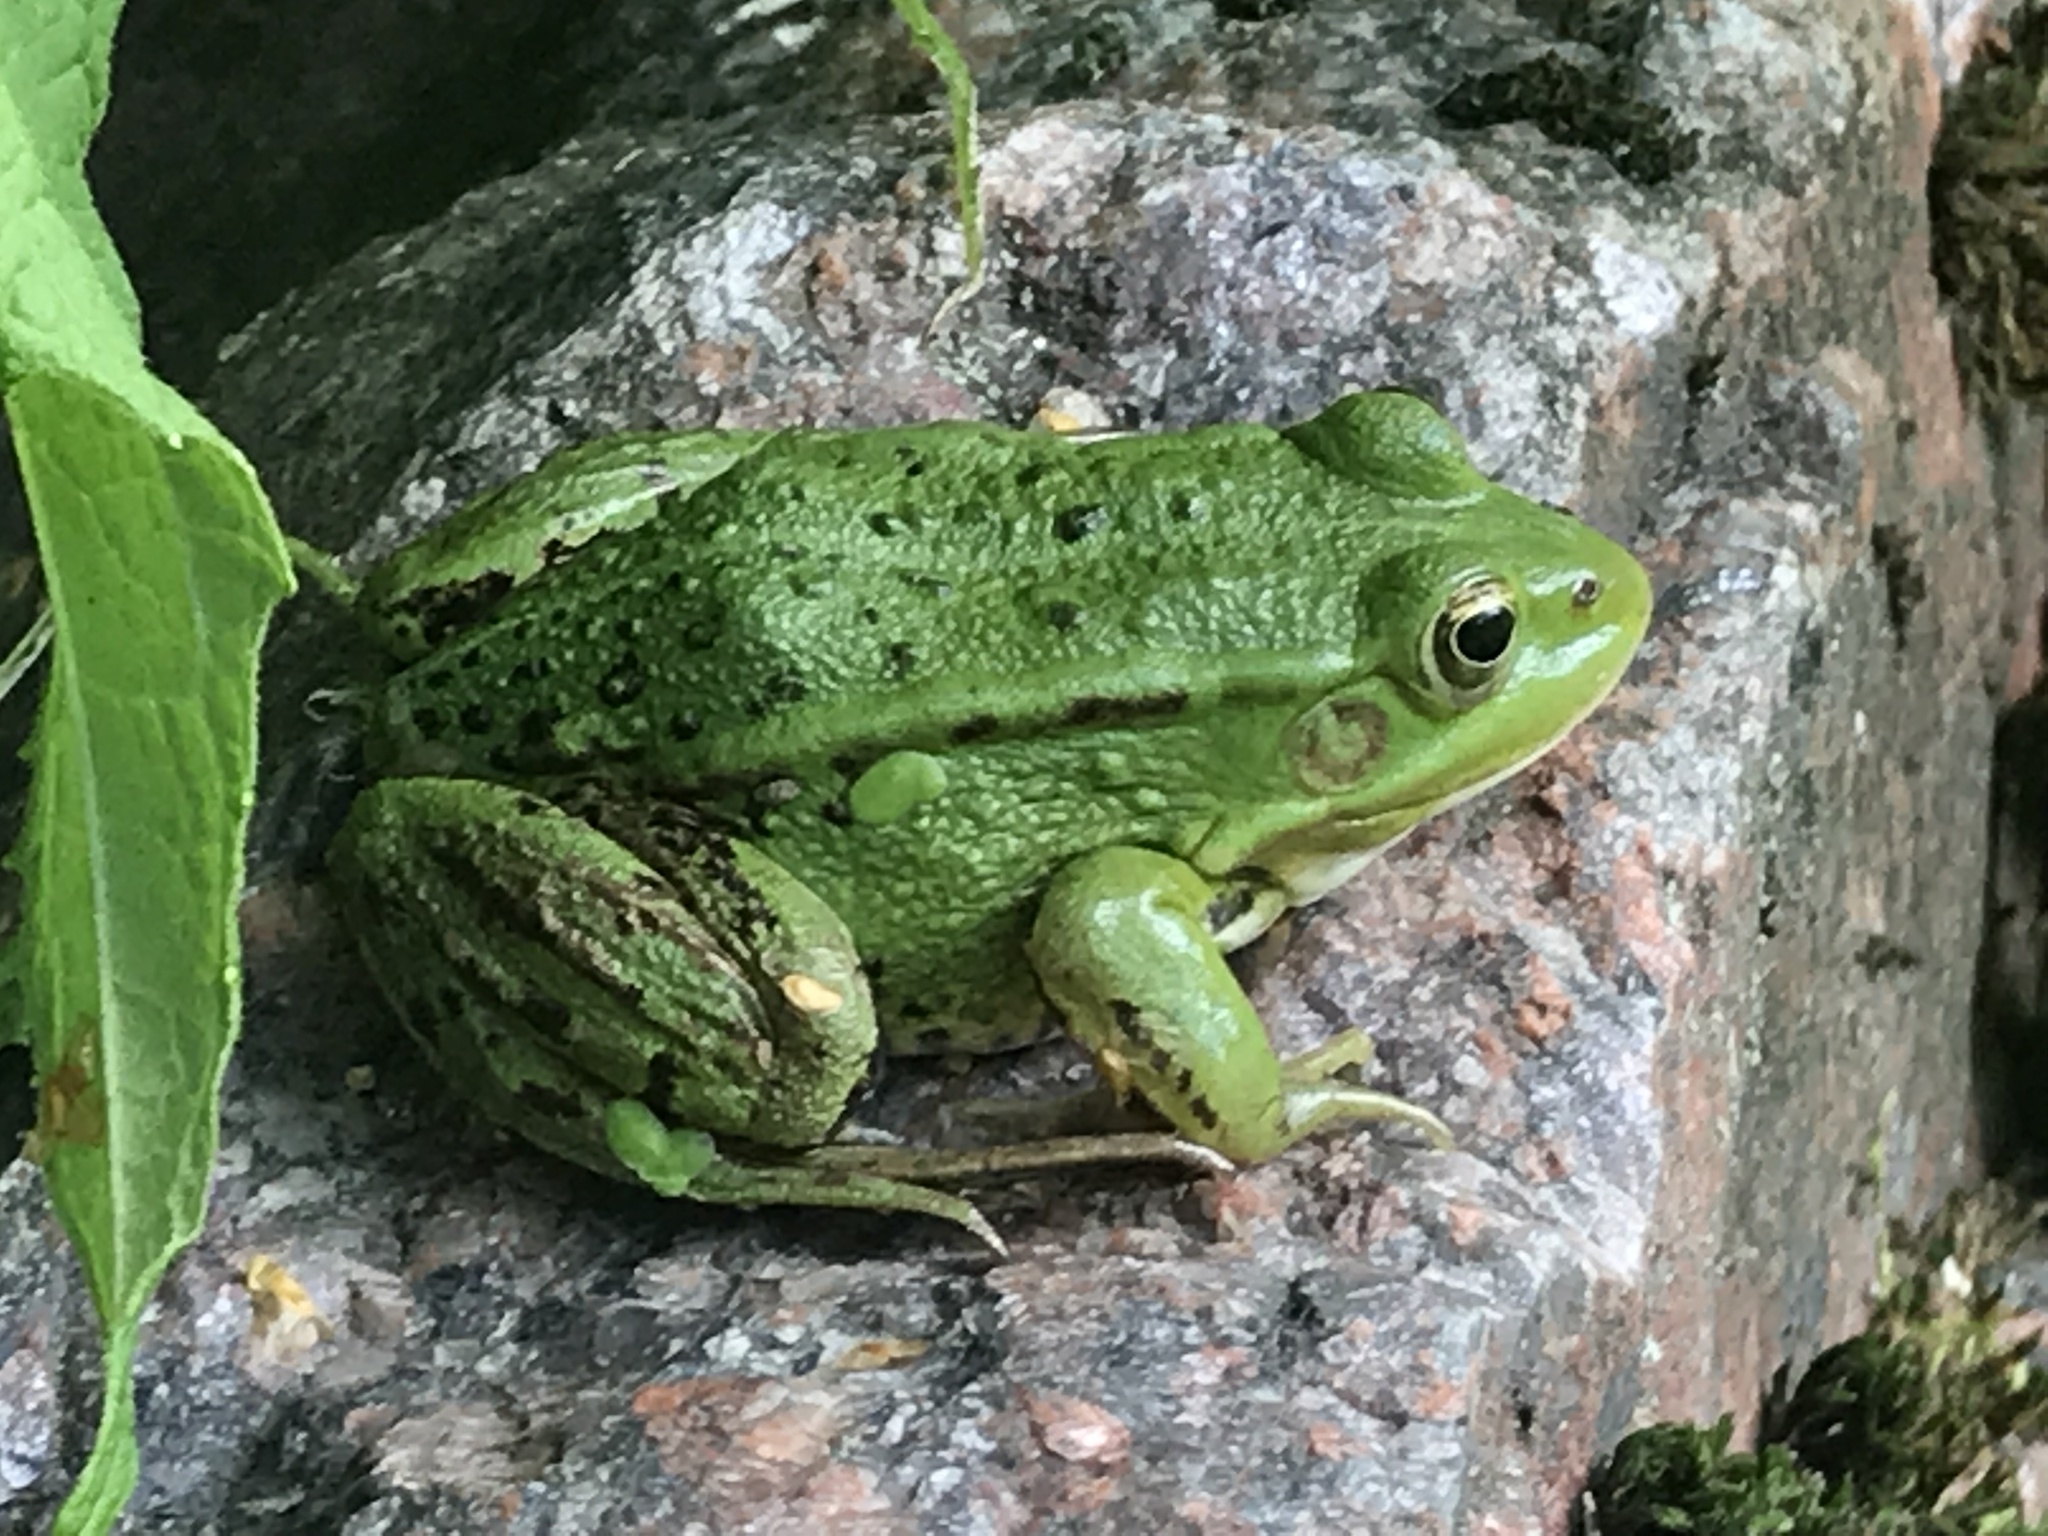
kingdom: Animalia
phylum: Chordata
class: Amphibia
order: Anura
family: Ranidae
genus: Pelophylax
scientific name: Pelophylax lessonae
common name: Pool frog
